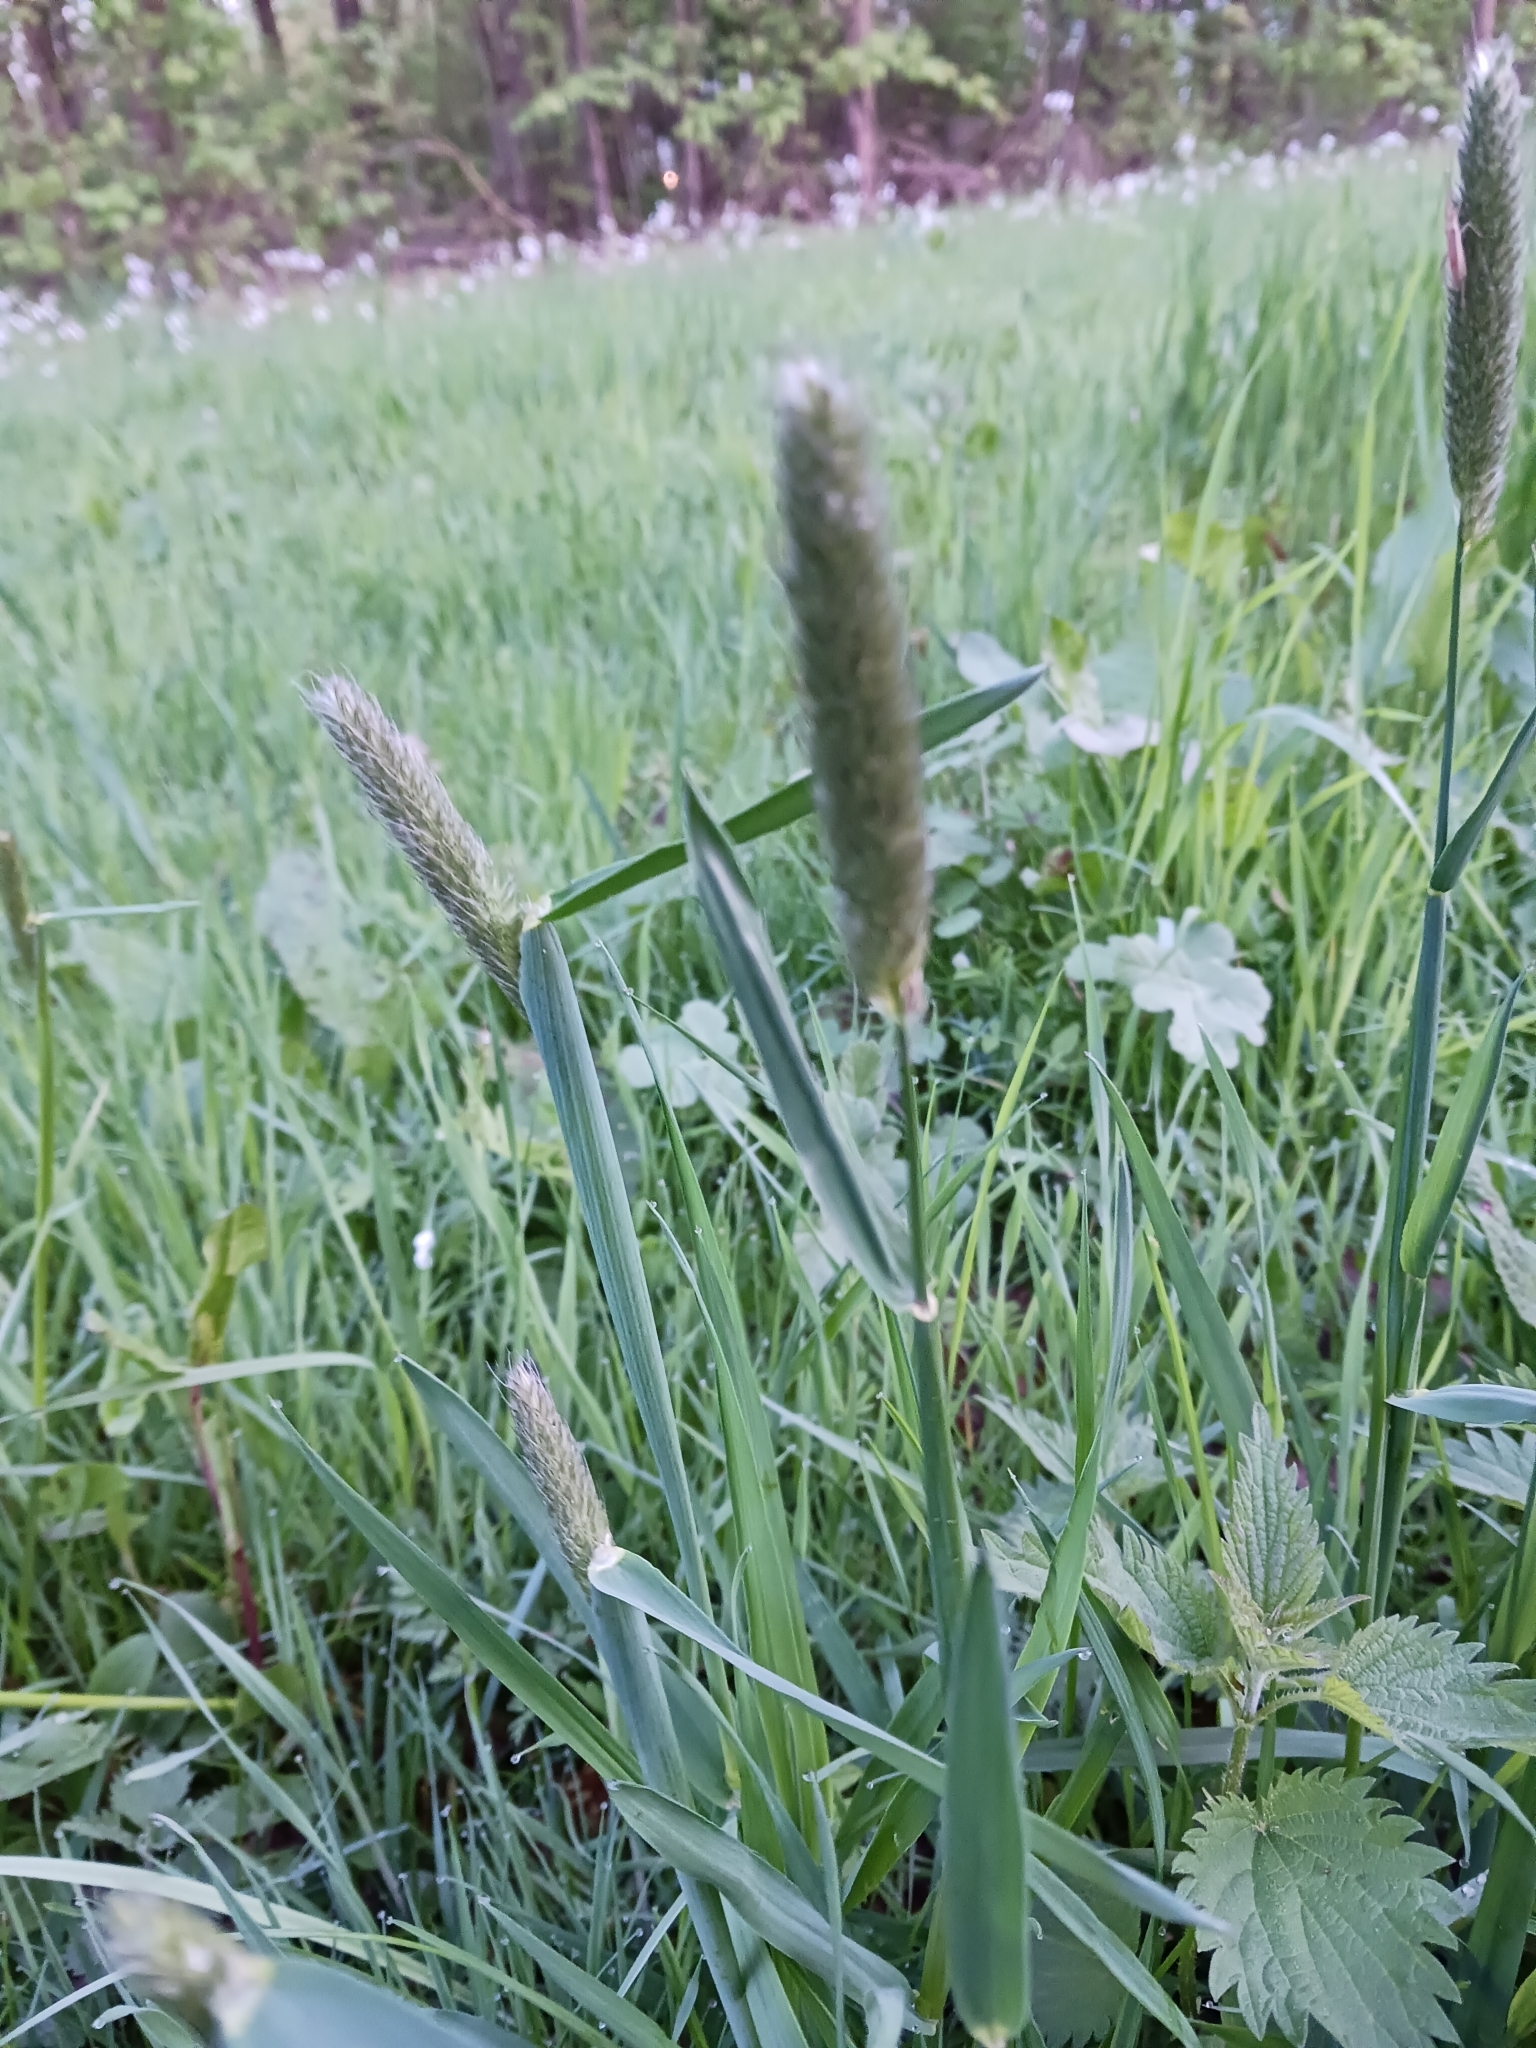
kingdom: Plantae
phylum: Tracheophyta
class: Liliopsida
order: Poales
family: Poaceae
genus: Alopecurus
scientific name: Alopecurus pratensis
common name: Meadow foxtail
